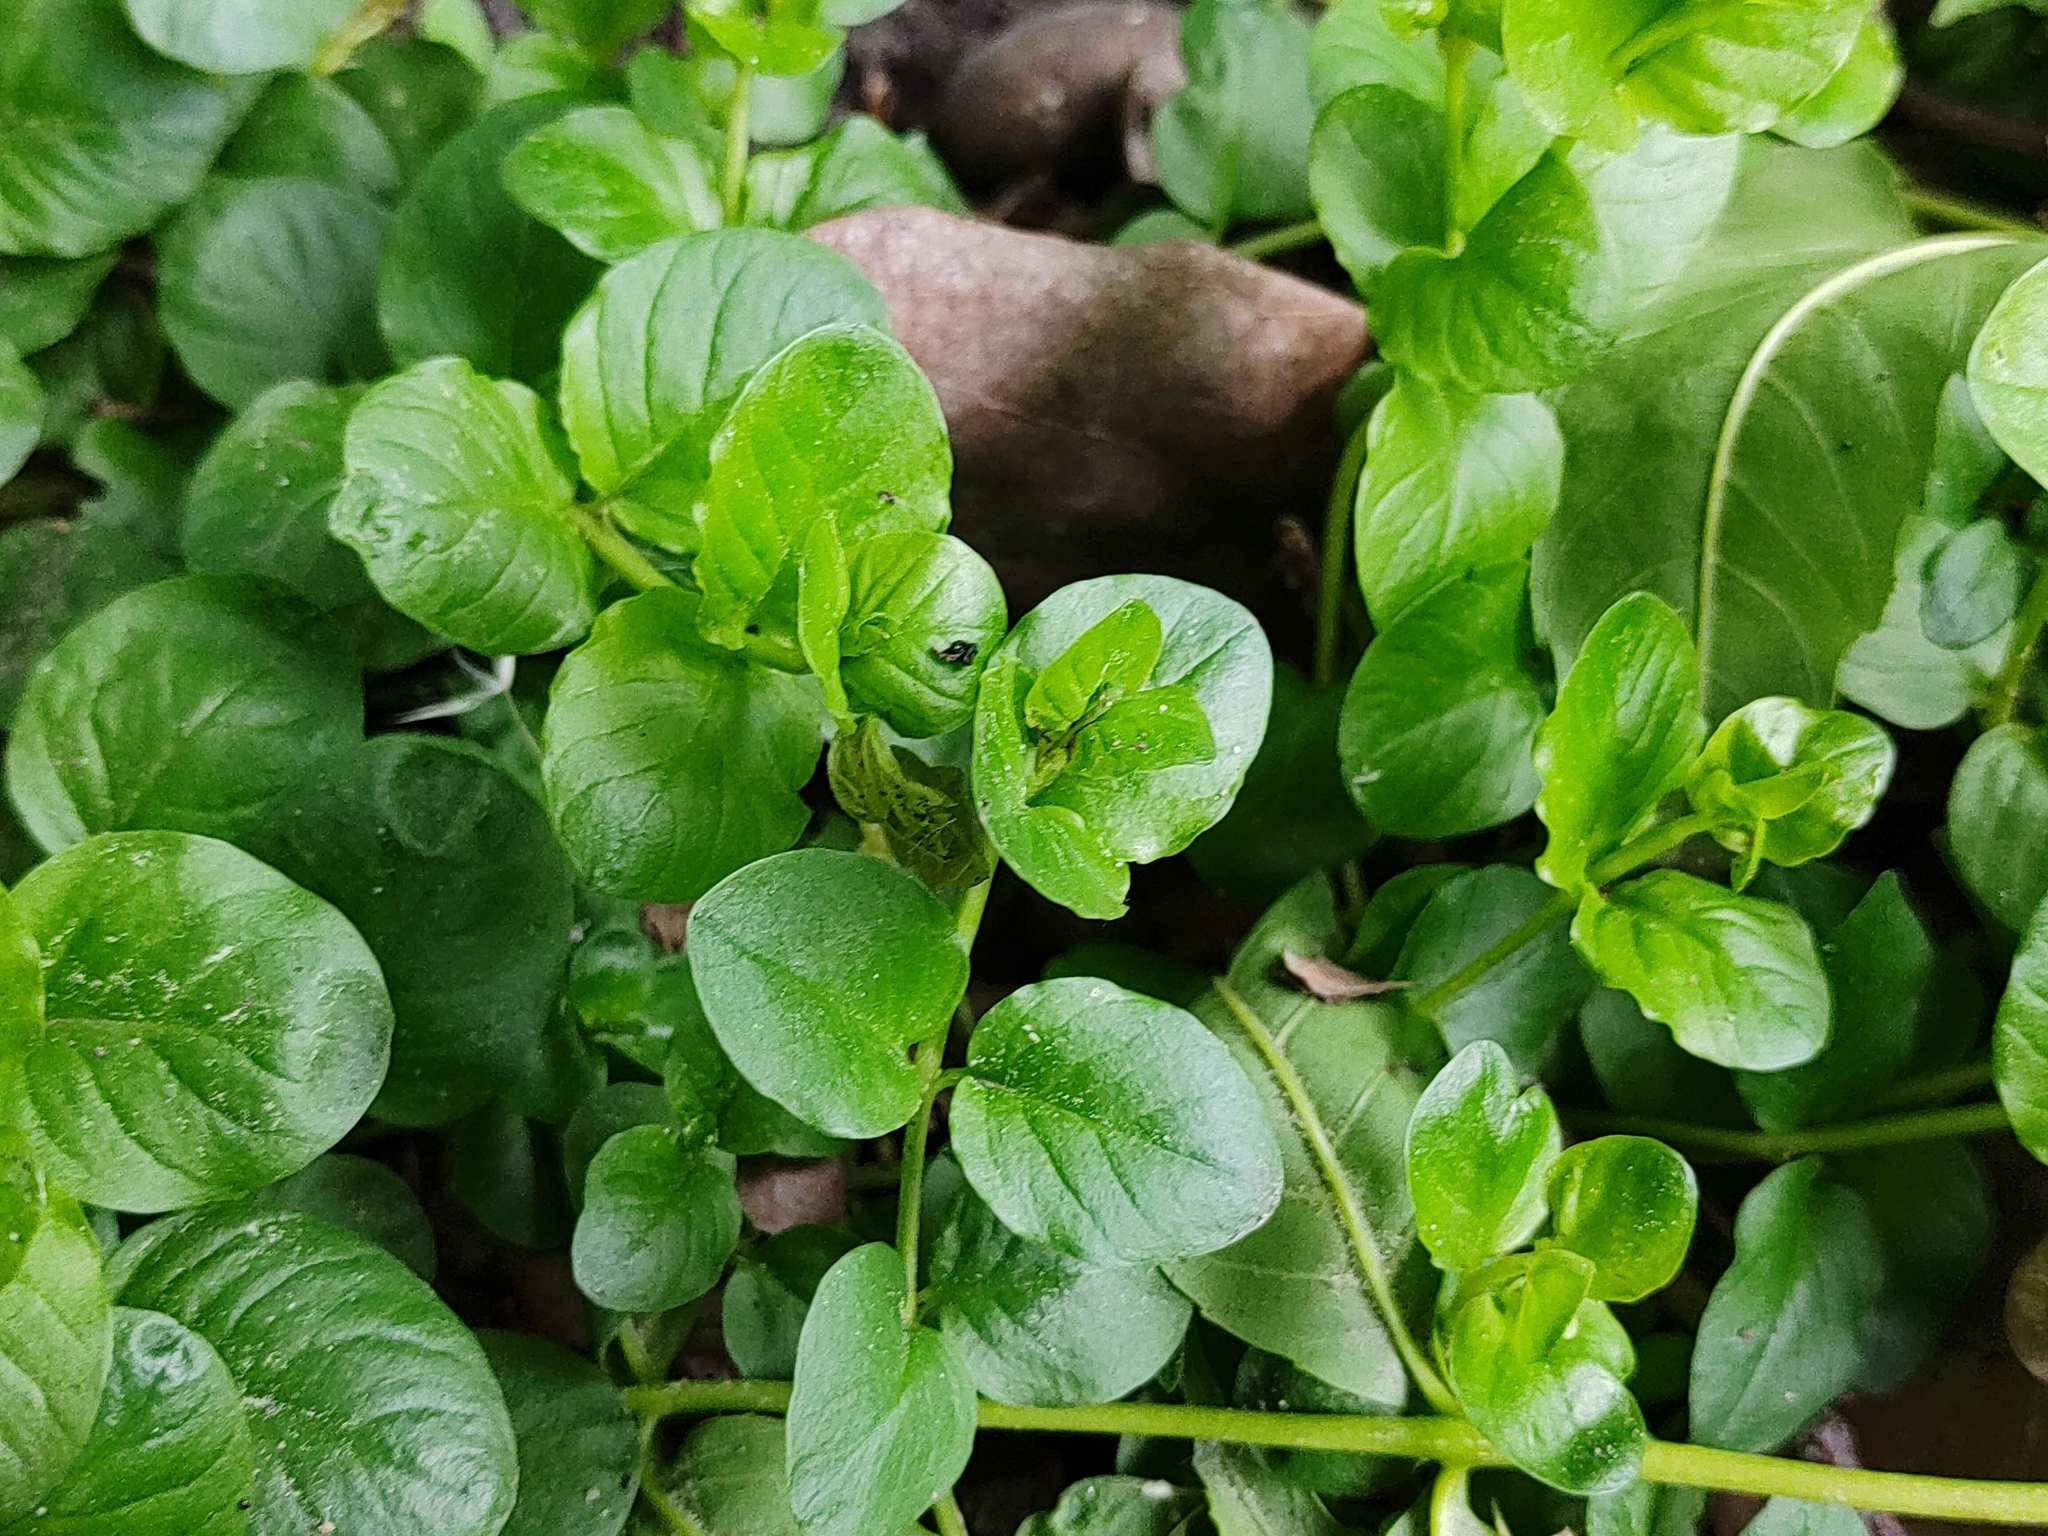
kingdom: Plantae
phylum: Tracheophyta
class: Magnoliopsida
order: Ericales
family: Primulaceae
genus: Lysimachia
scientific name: Lysimachia nummularia
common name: Moneywort
